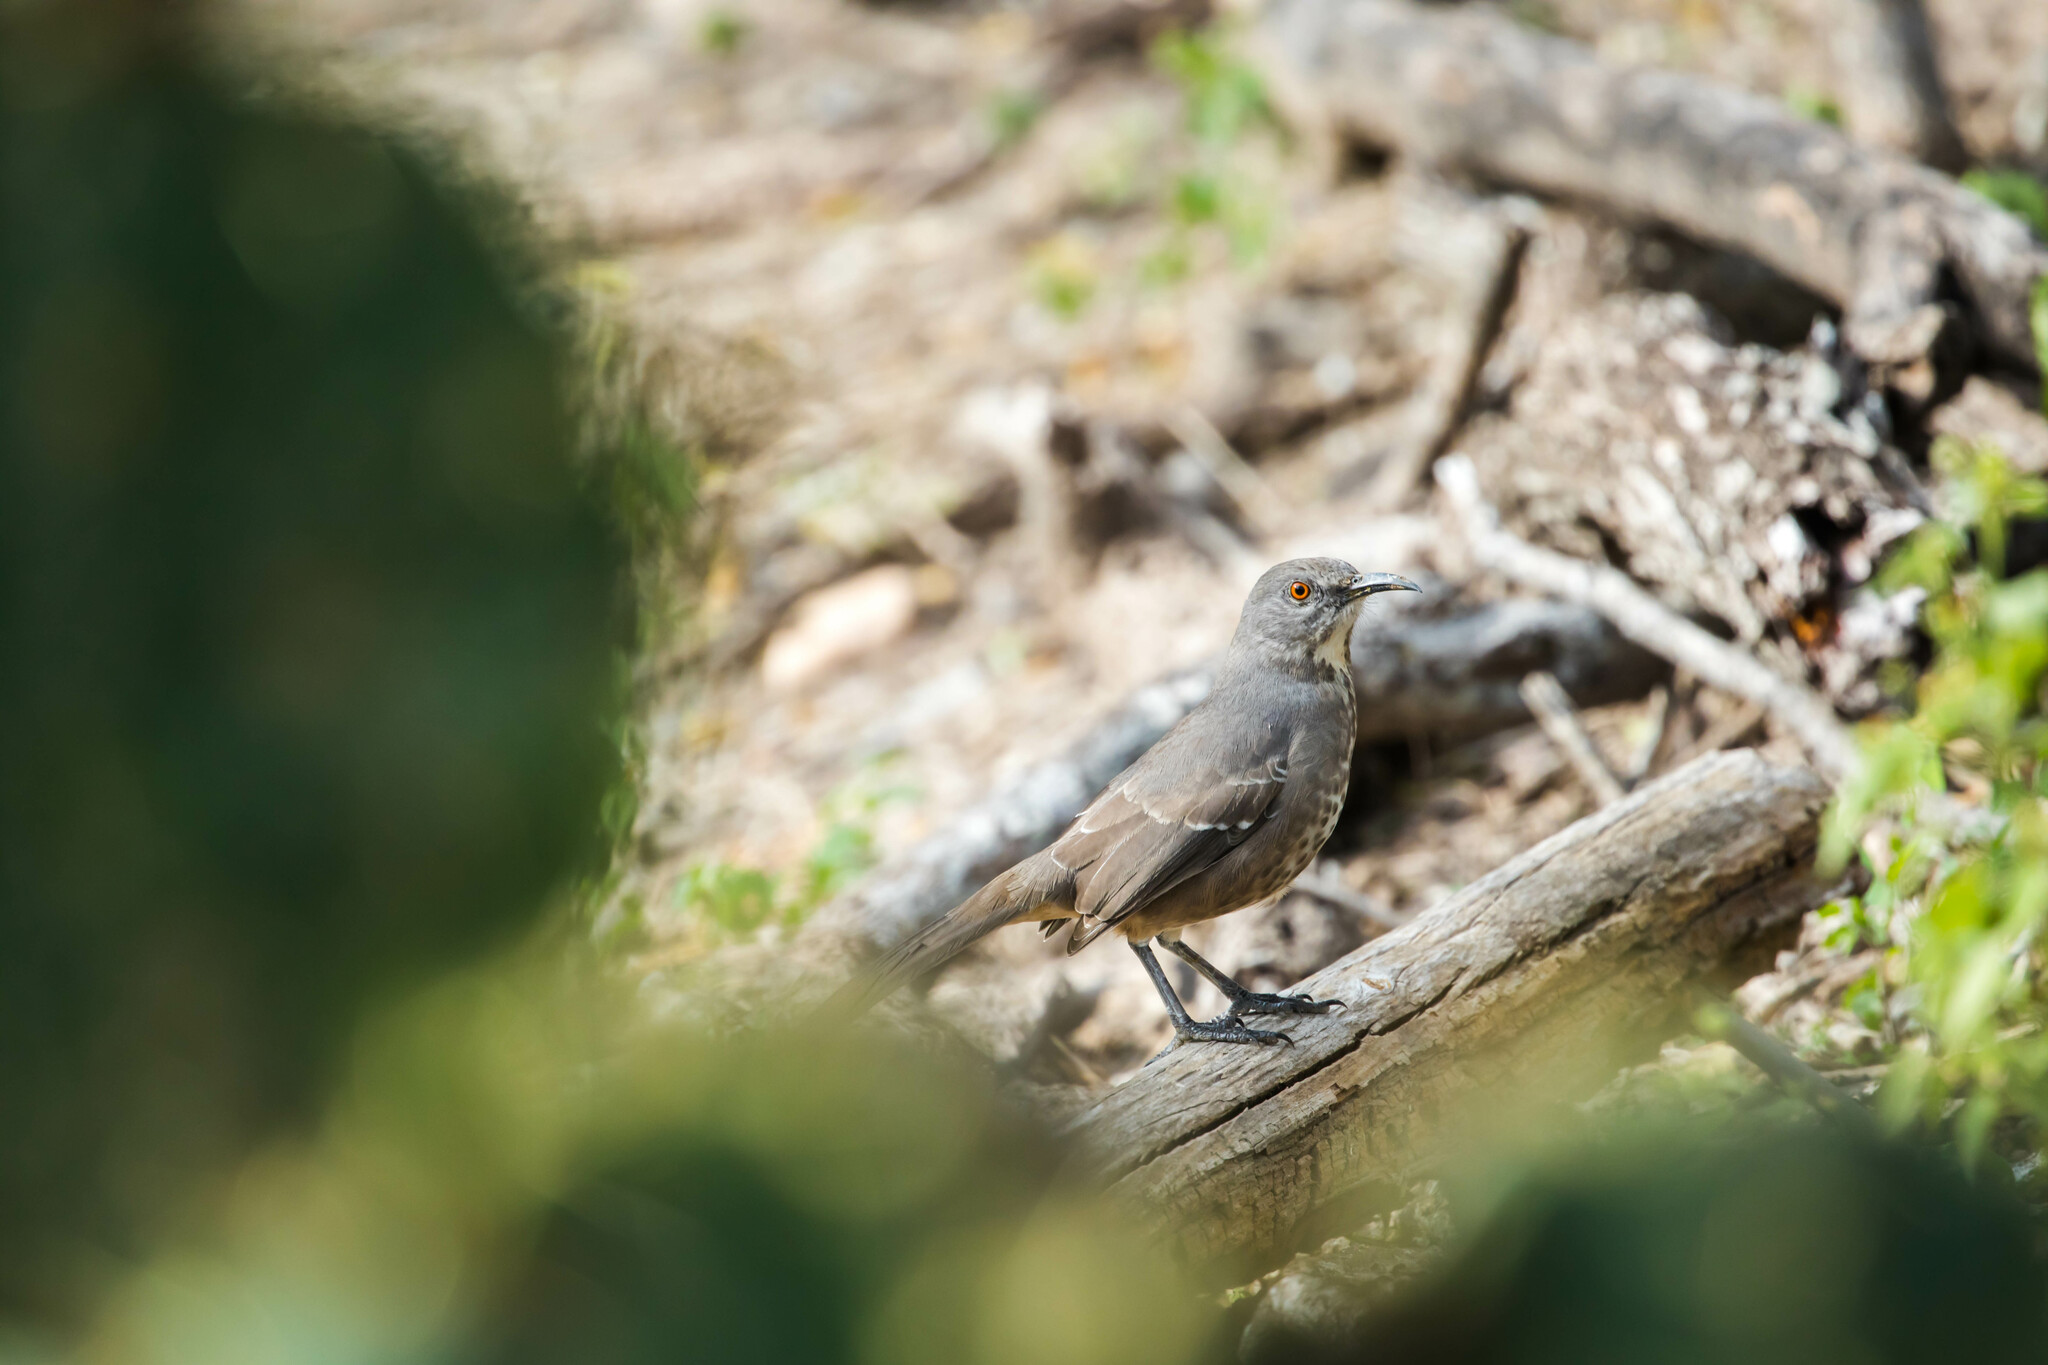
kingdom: Animalia
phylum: Chordata
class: Aves
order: Passeriformes
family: Mimidae
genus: Toxostoma
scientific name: Toxostoma curvirostre
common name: Curve-billed thrasher
